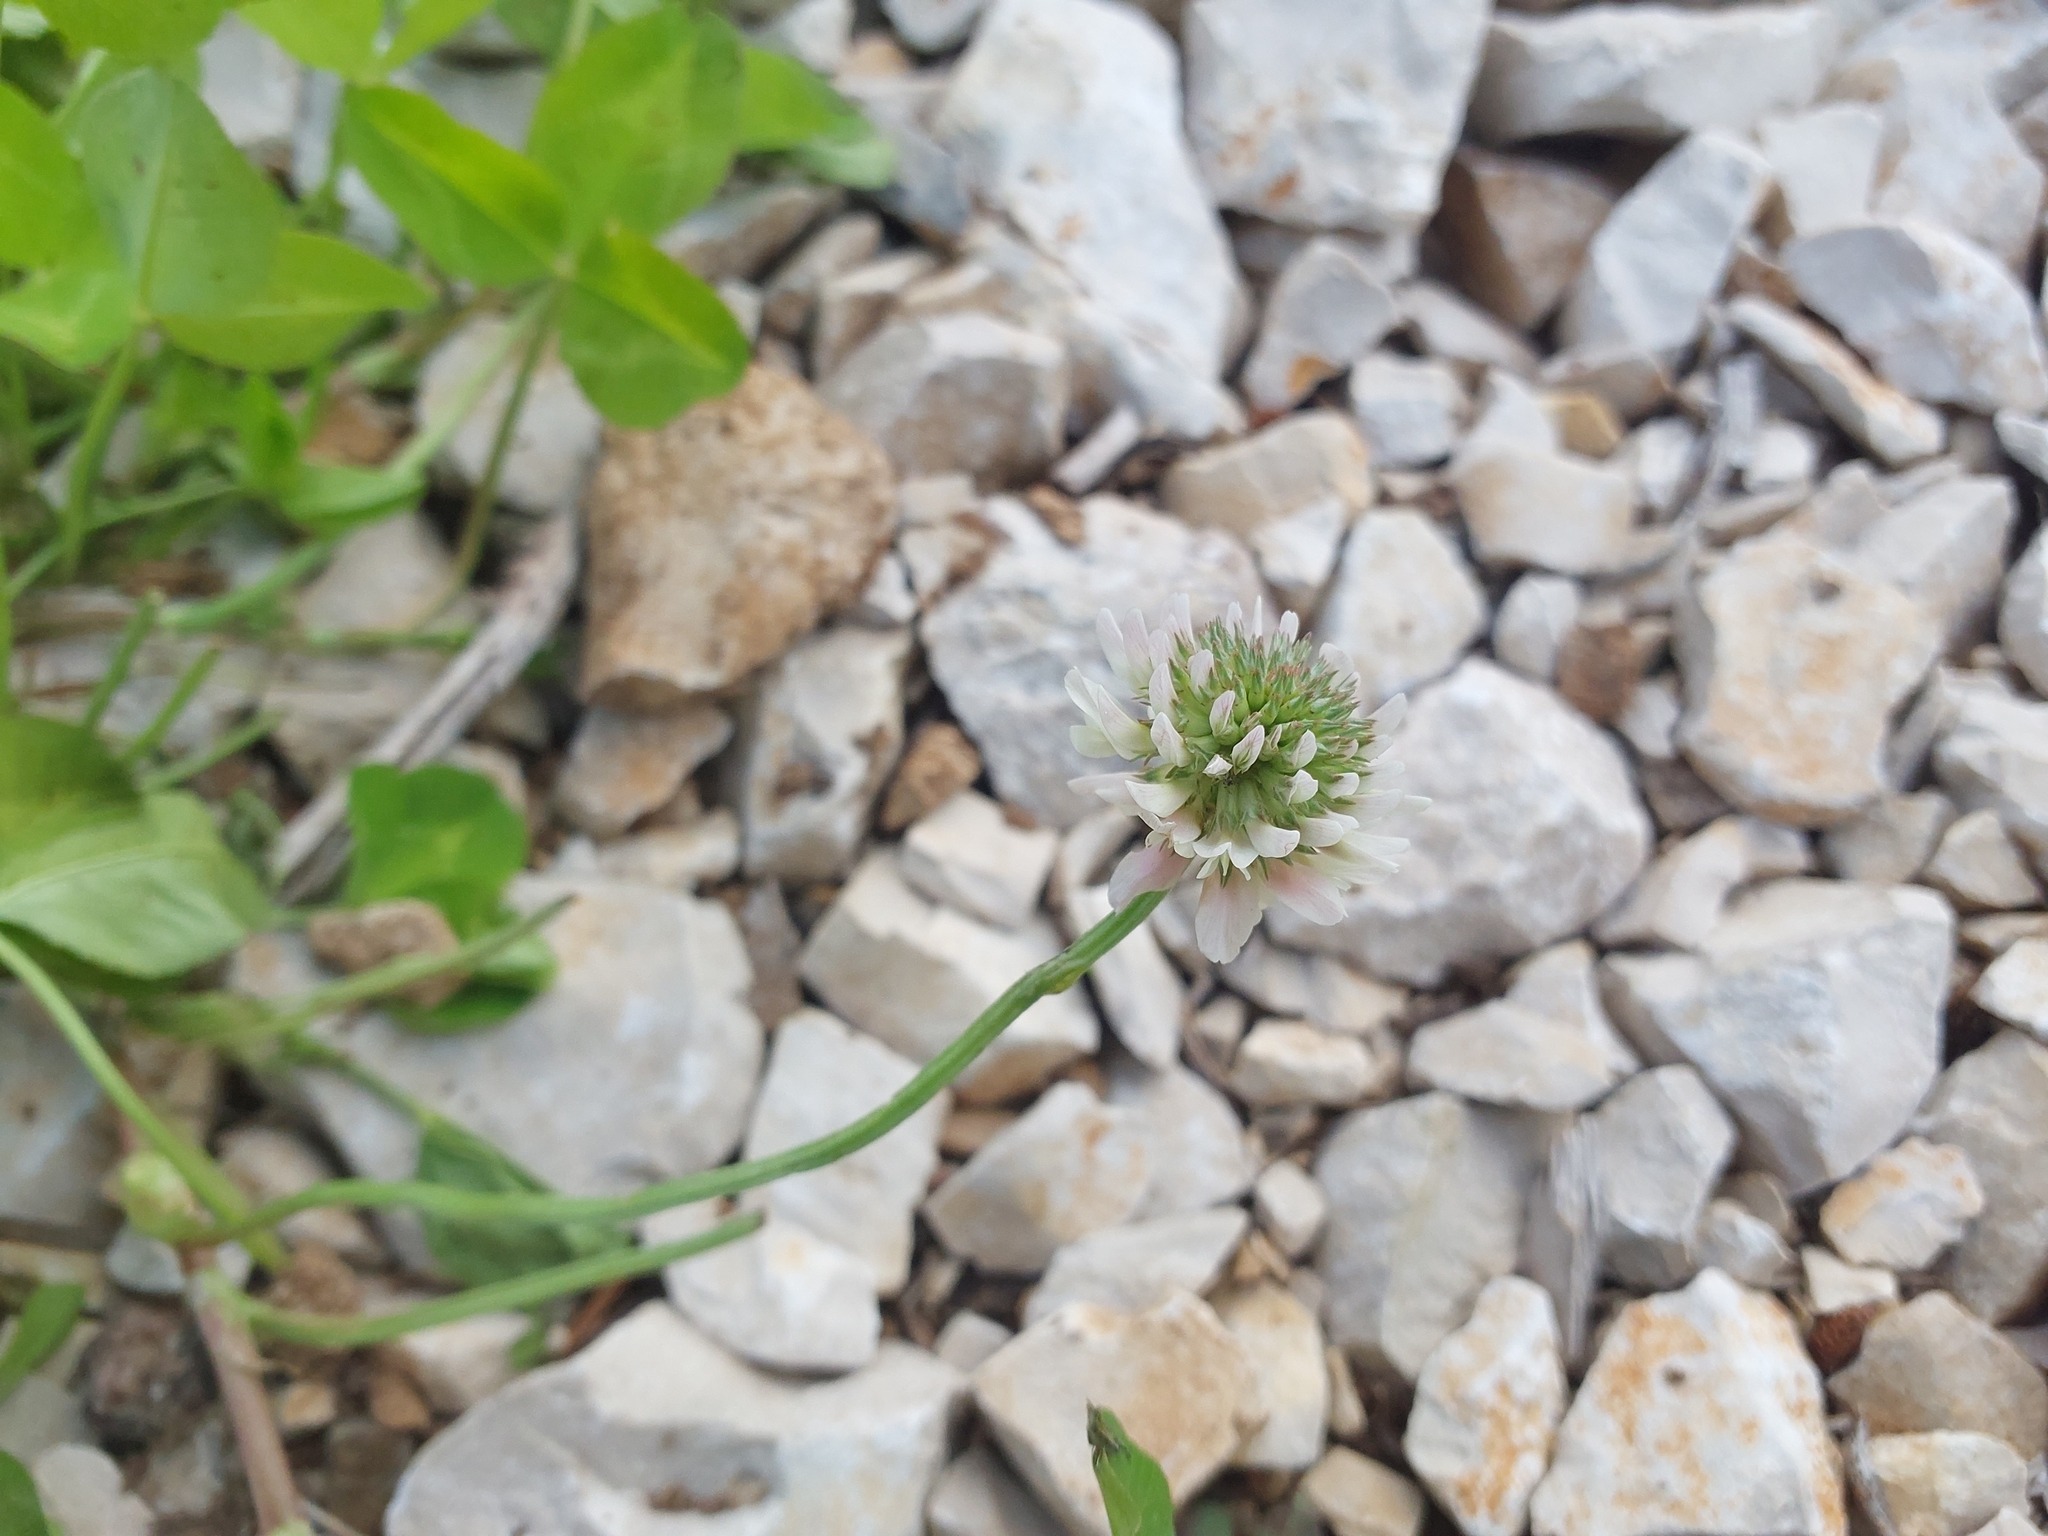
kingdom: Plantae
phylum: Tracheophyta
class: Magnoliopsida
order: Fabales
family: Fabaceae
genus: Trifolium
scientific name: Trifolium repens
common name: White clover
